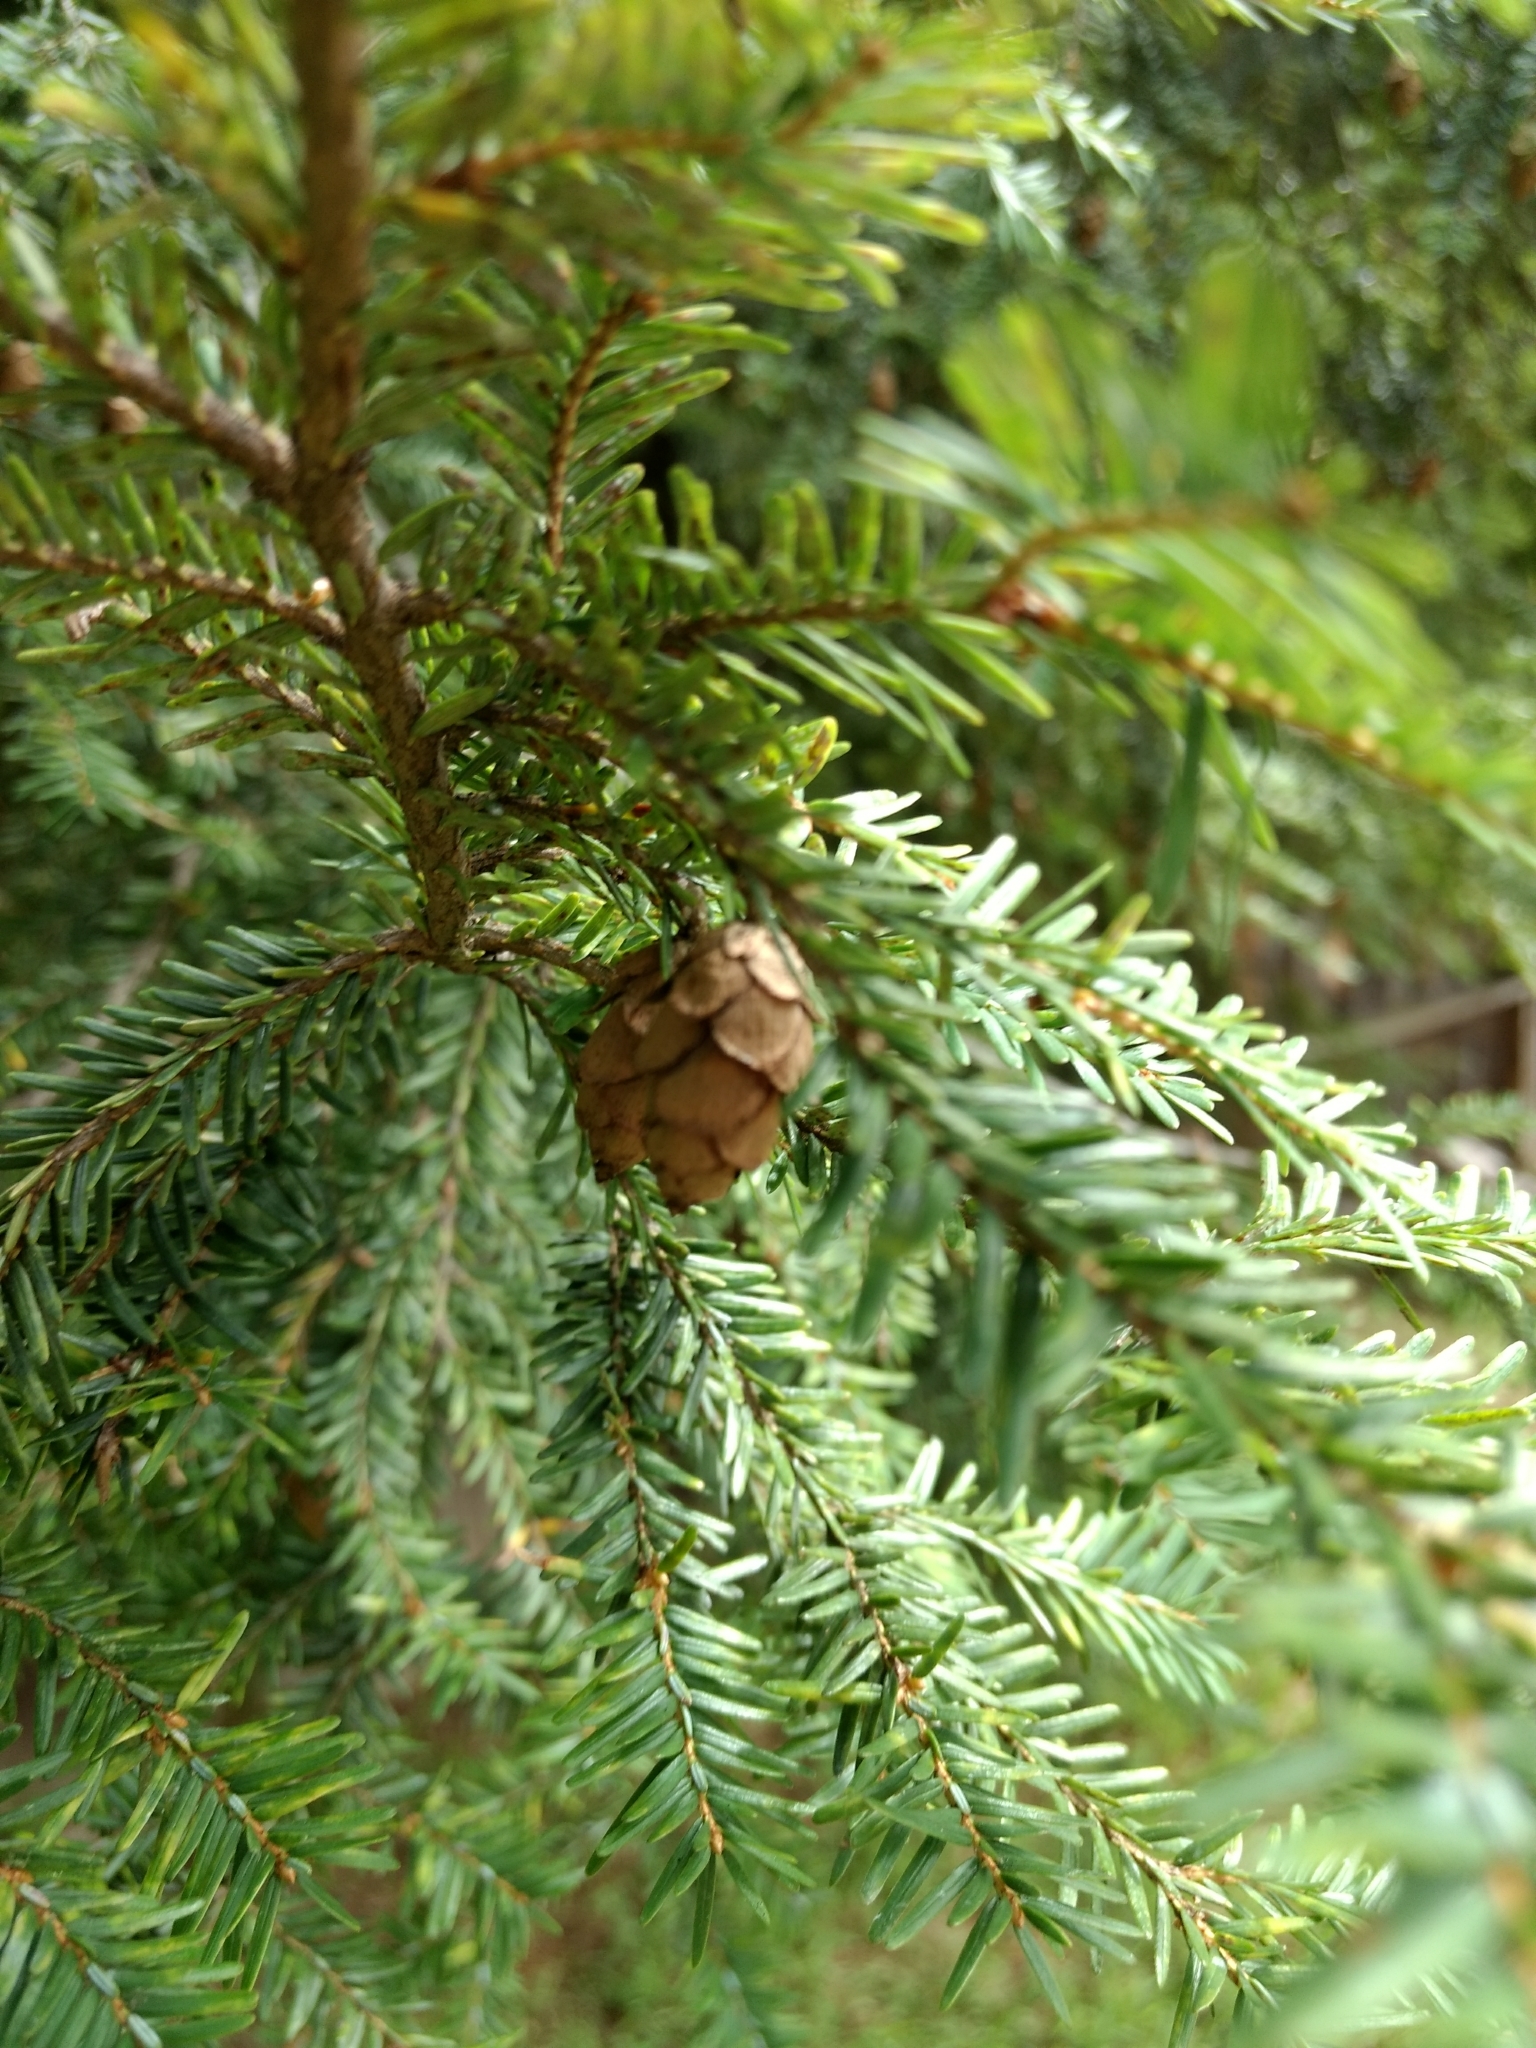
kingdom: Plantae
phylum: Tracheophyta
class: Pinopsida
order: Pinales
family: Pinaceae
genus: Tsuga
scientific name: Tsuga canadensis
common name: Eastern hemlock
